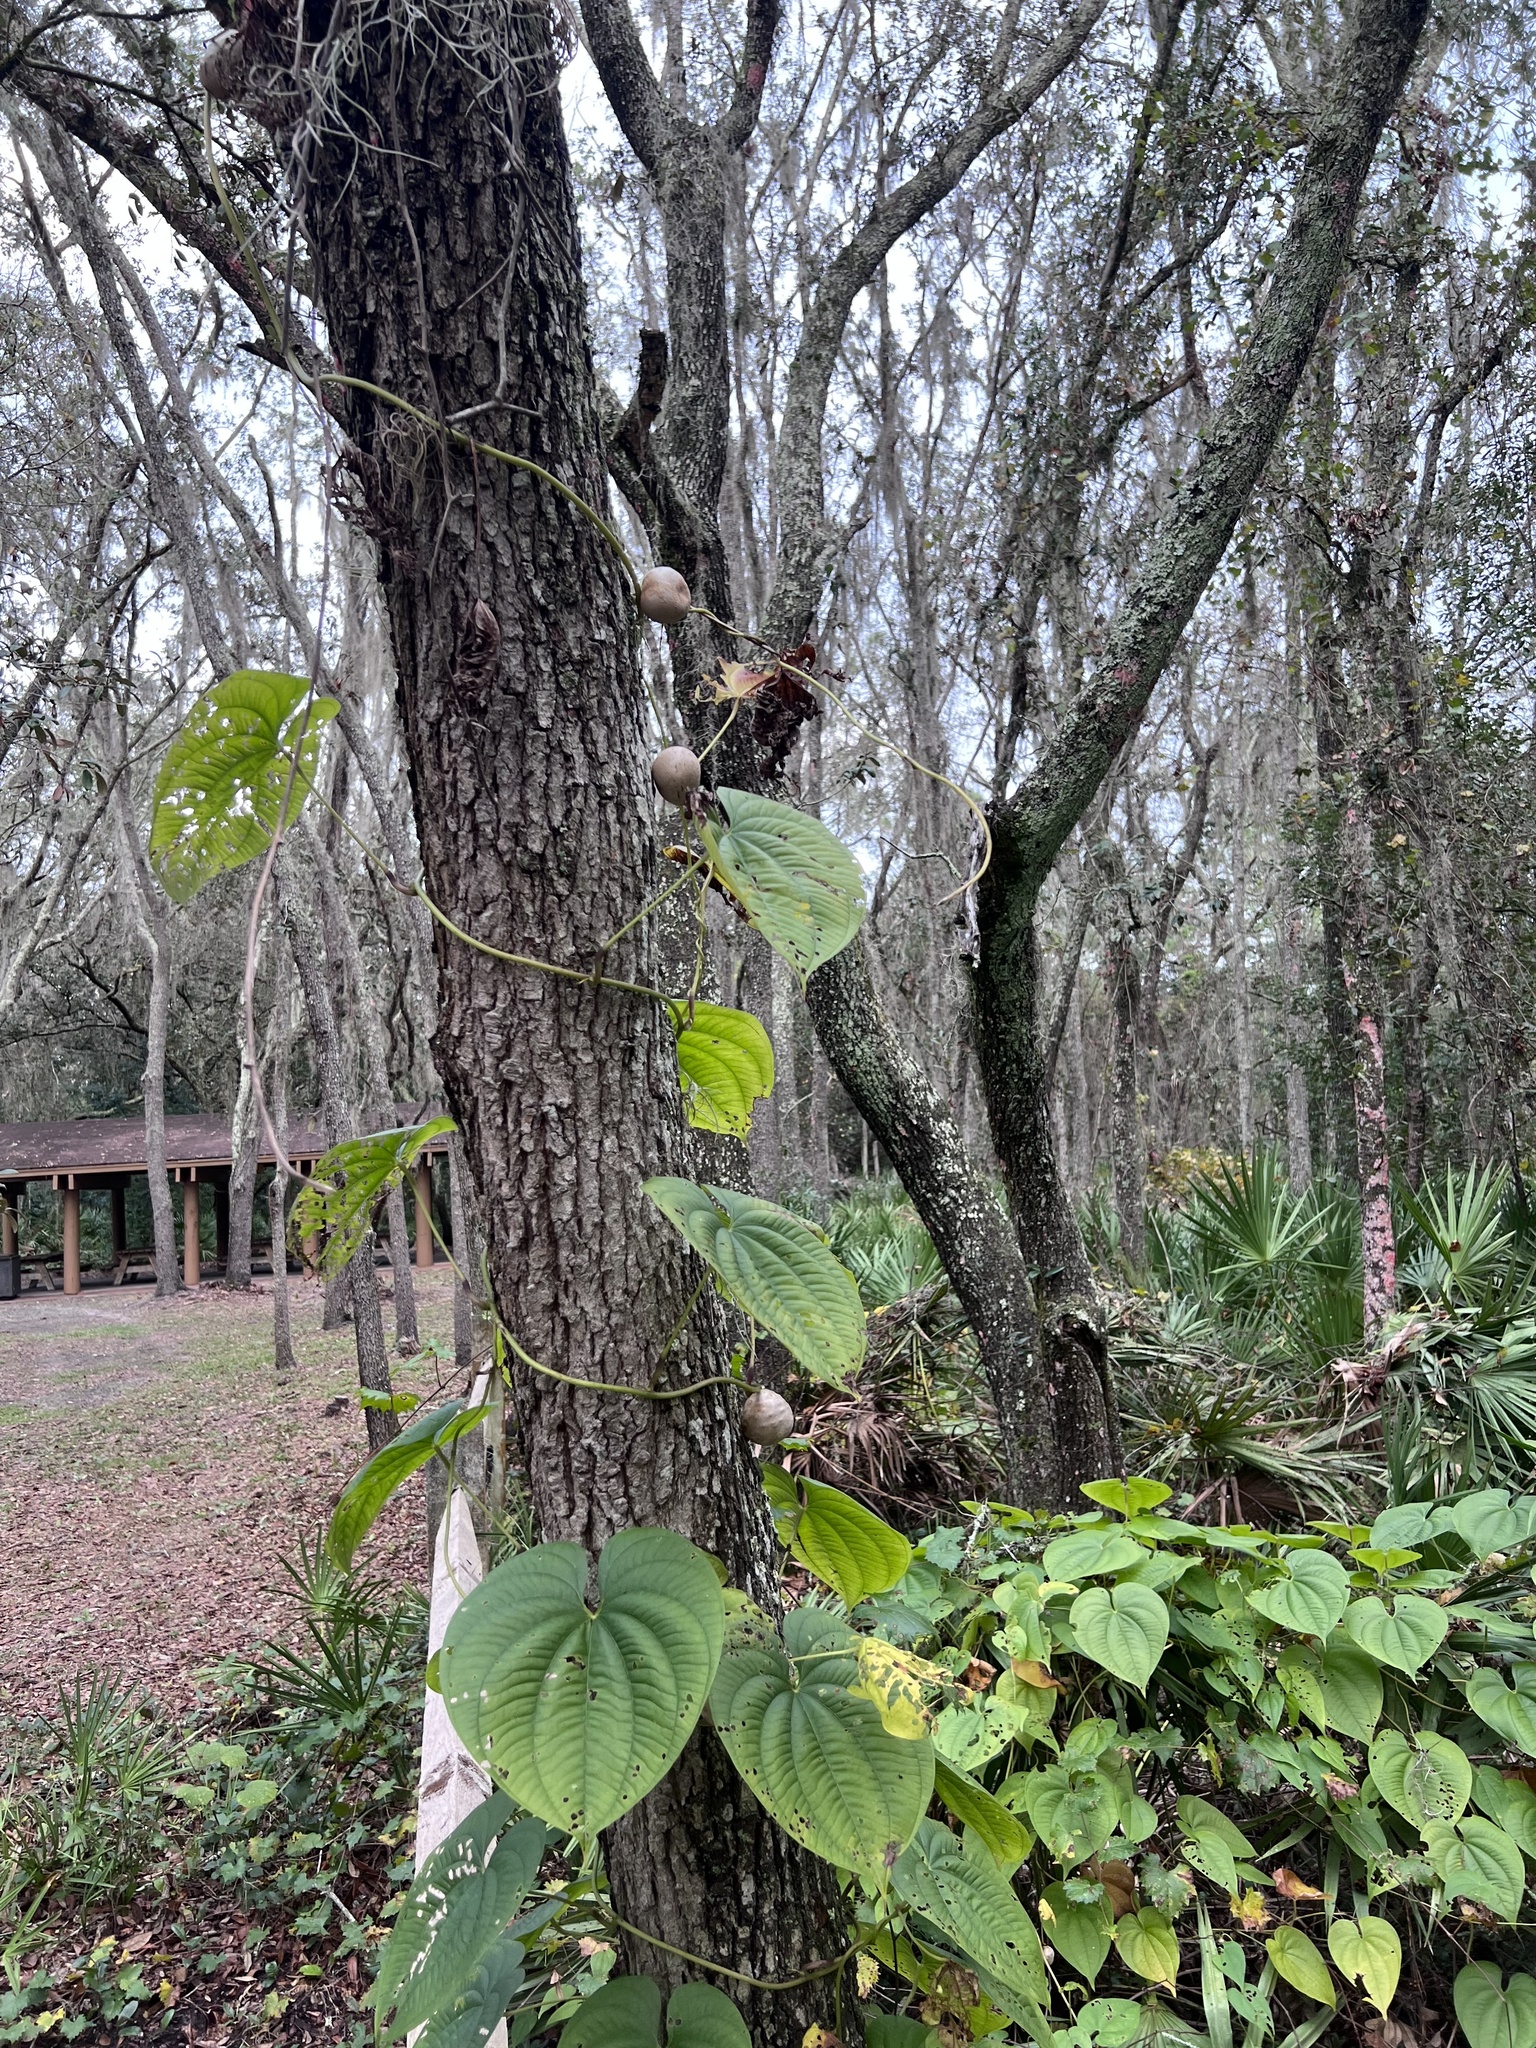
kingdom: Plantae
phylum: Tracheophyta
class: Liliopsida
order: Dioscoreales
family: Dioscoreaceae
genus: Dioscorea
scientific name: Dioscorea bulbifera
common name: Air yam
